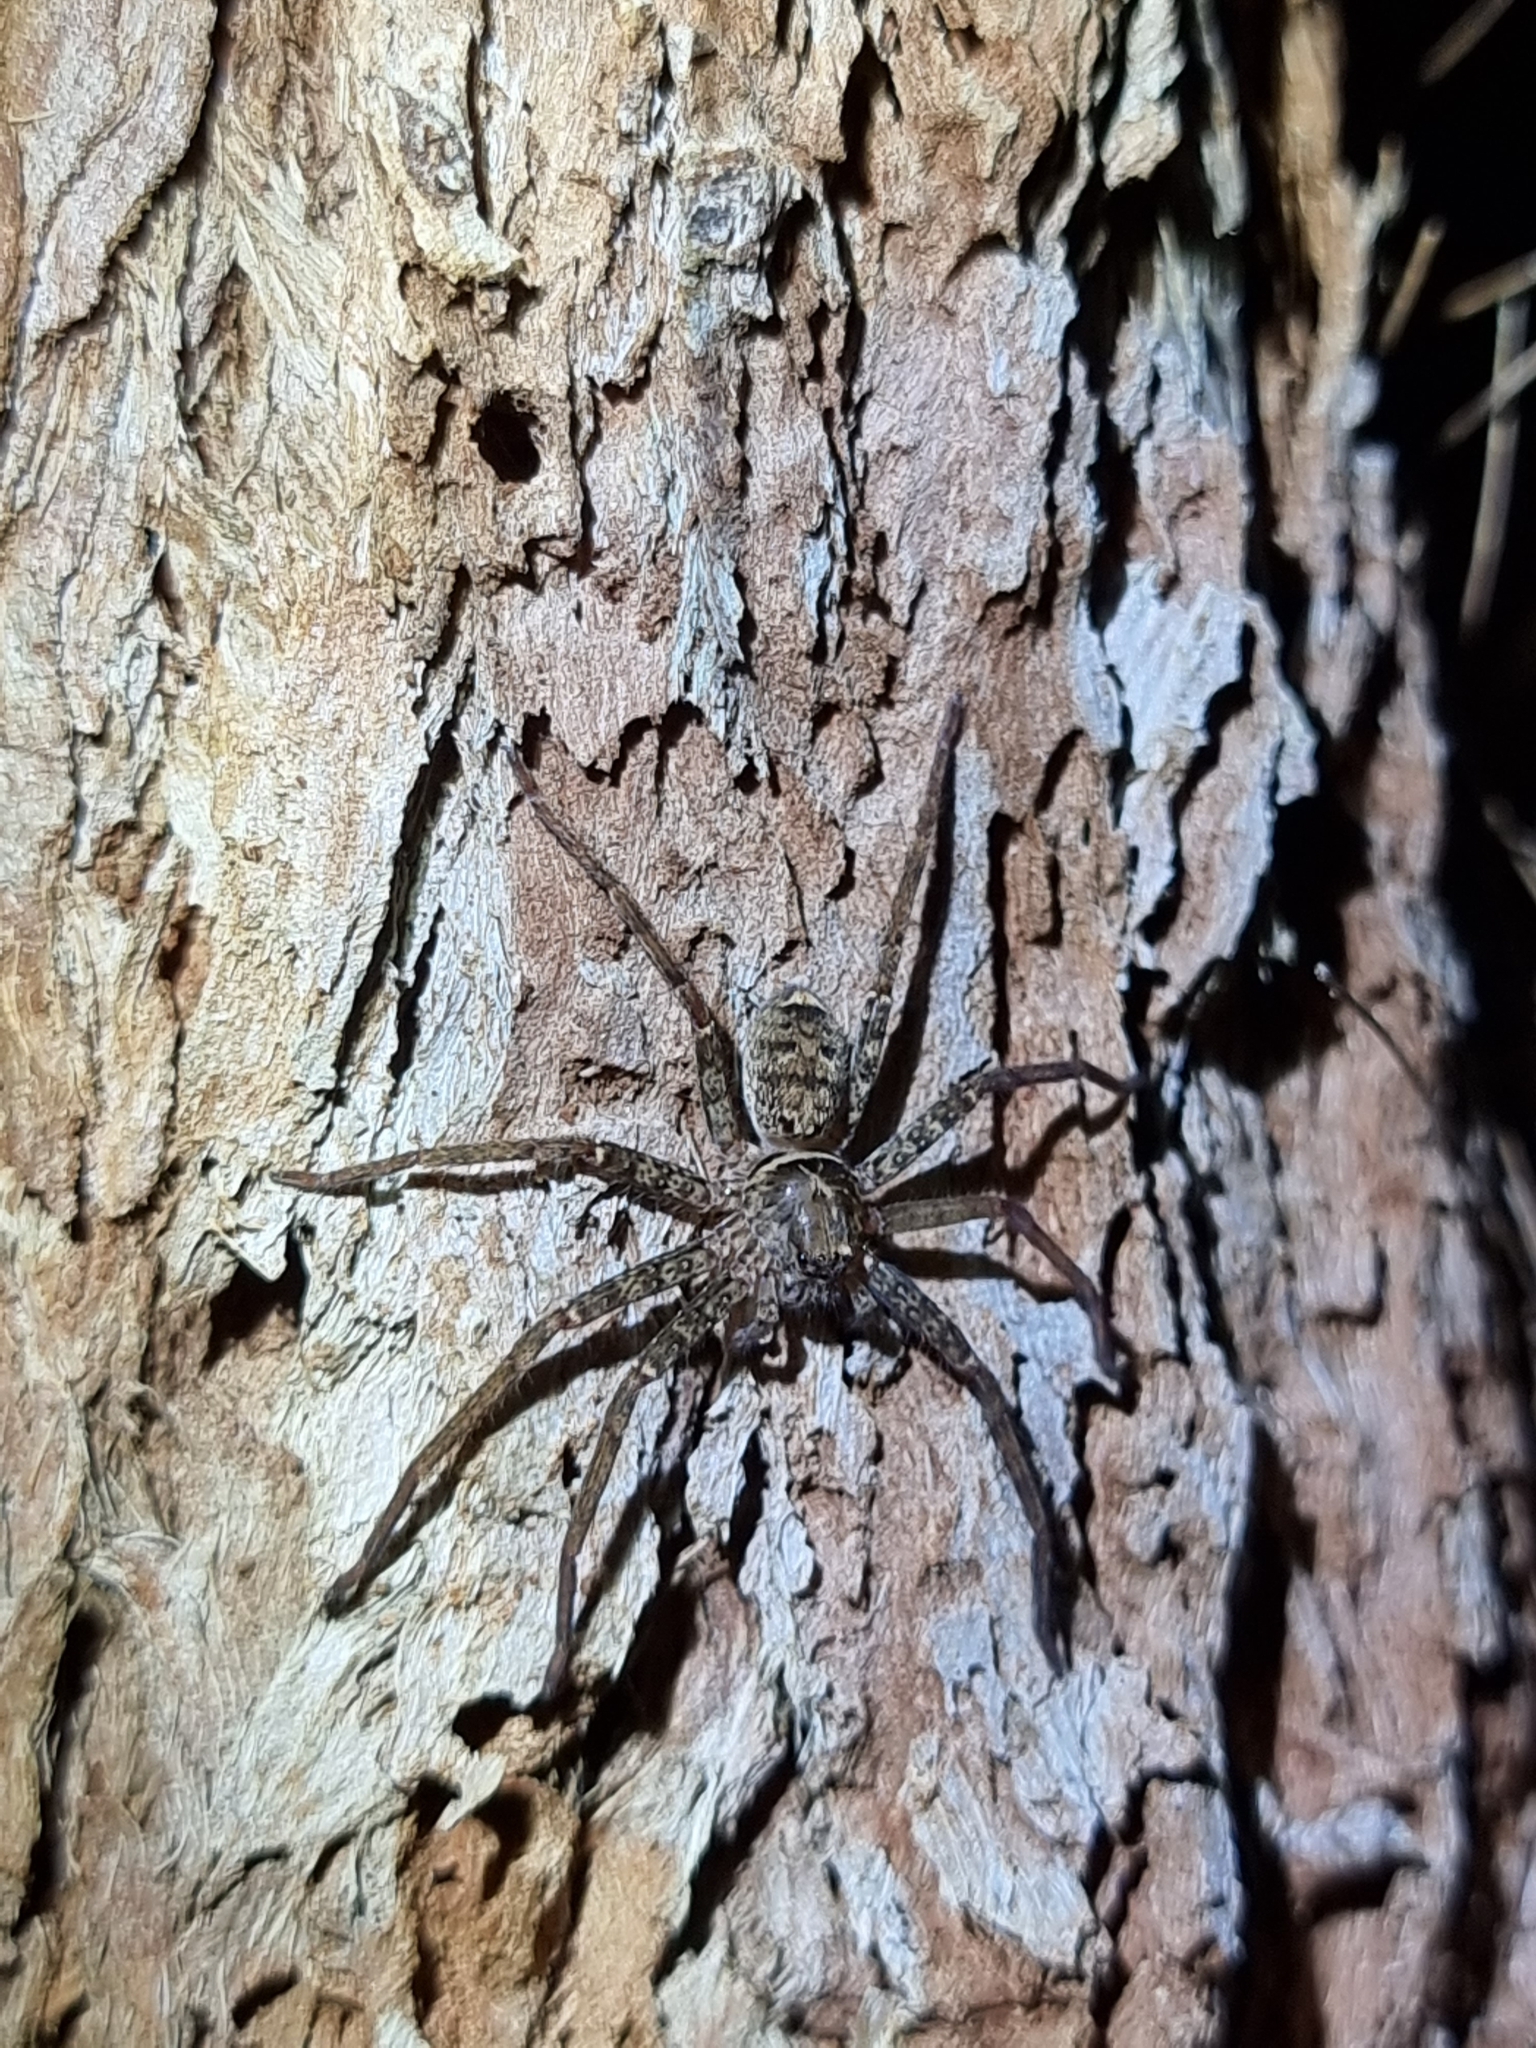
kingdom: Animalia
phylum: Arthropoda
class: Arachnida
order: Araneae
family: Sparassidae
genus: Heteropoda
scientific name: Heteropoda jugulans
